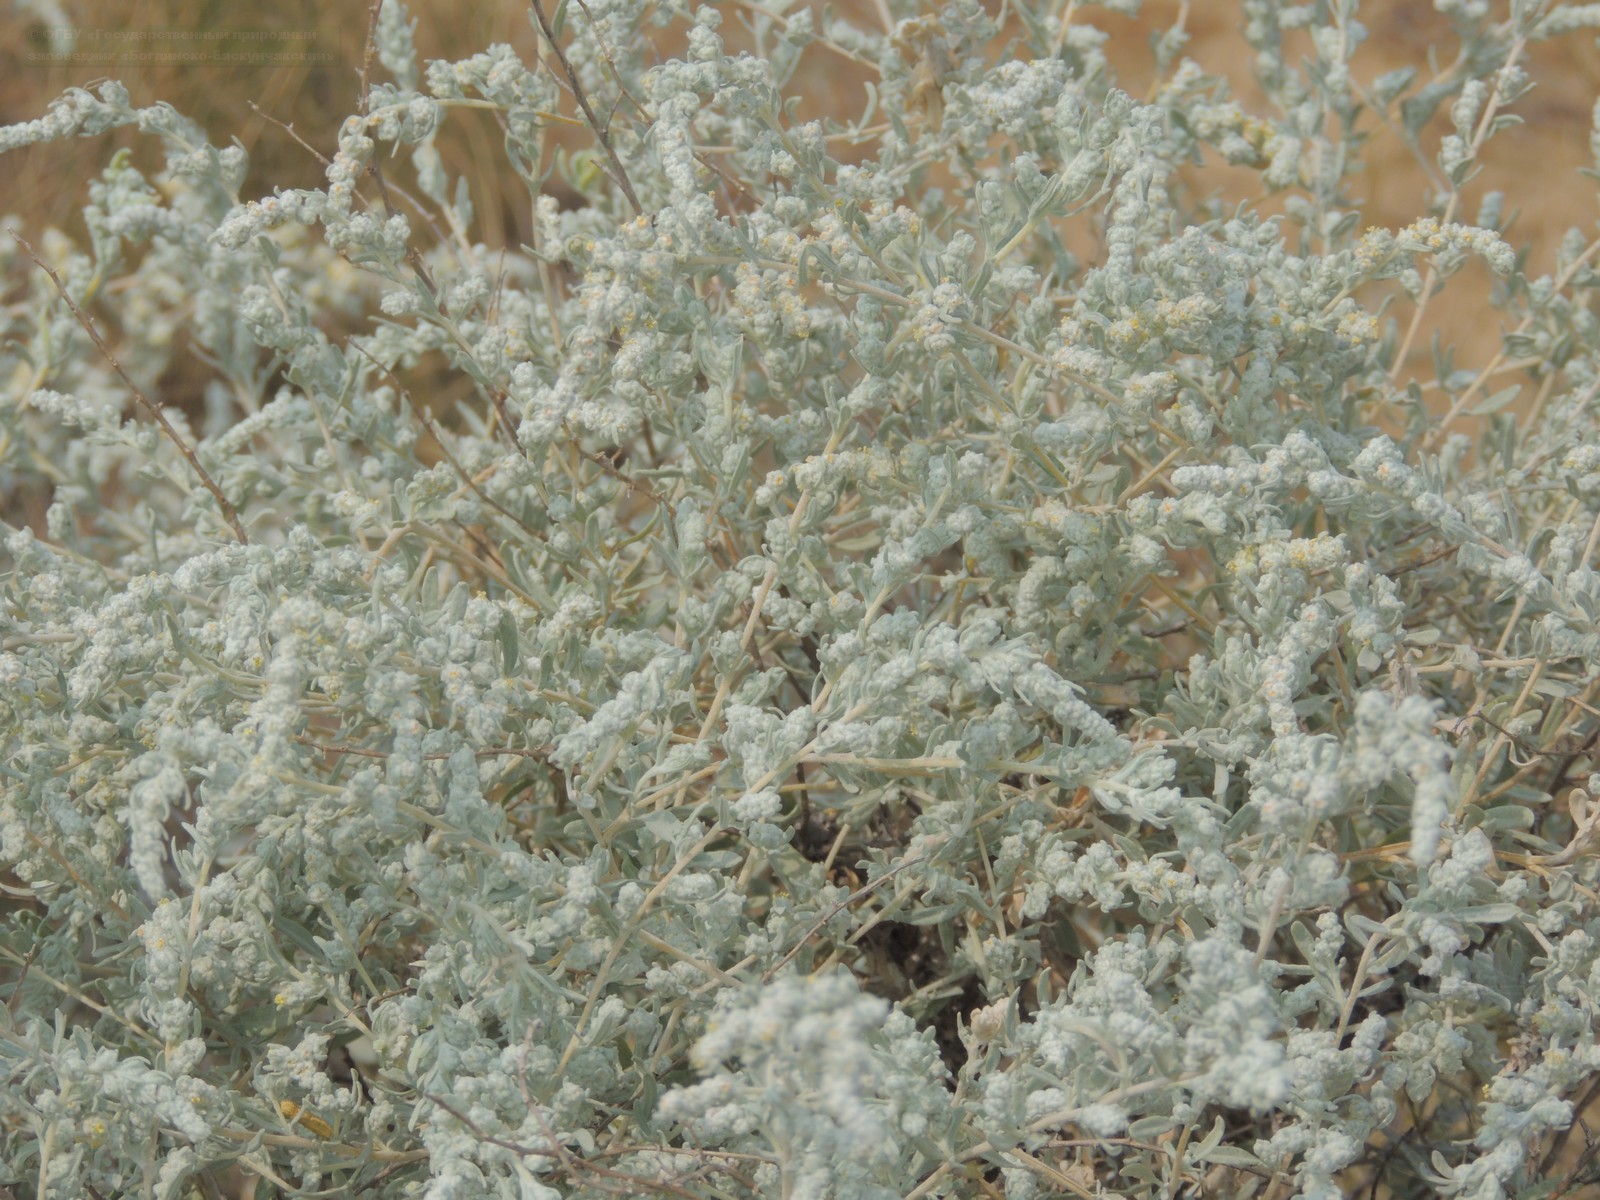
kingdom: Plantae
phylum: Tracheophyta
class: Magnoliopsida
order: Caryophyllales
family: Amaranthaceae
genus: Krascheninnikovia
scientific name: Krascheninnikovia ceratoides
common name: Pamirian winterfat
